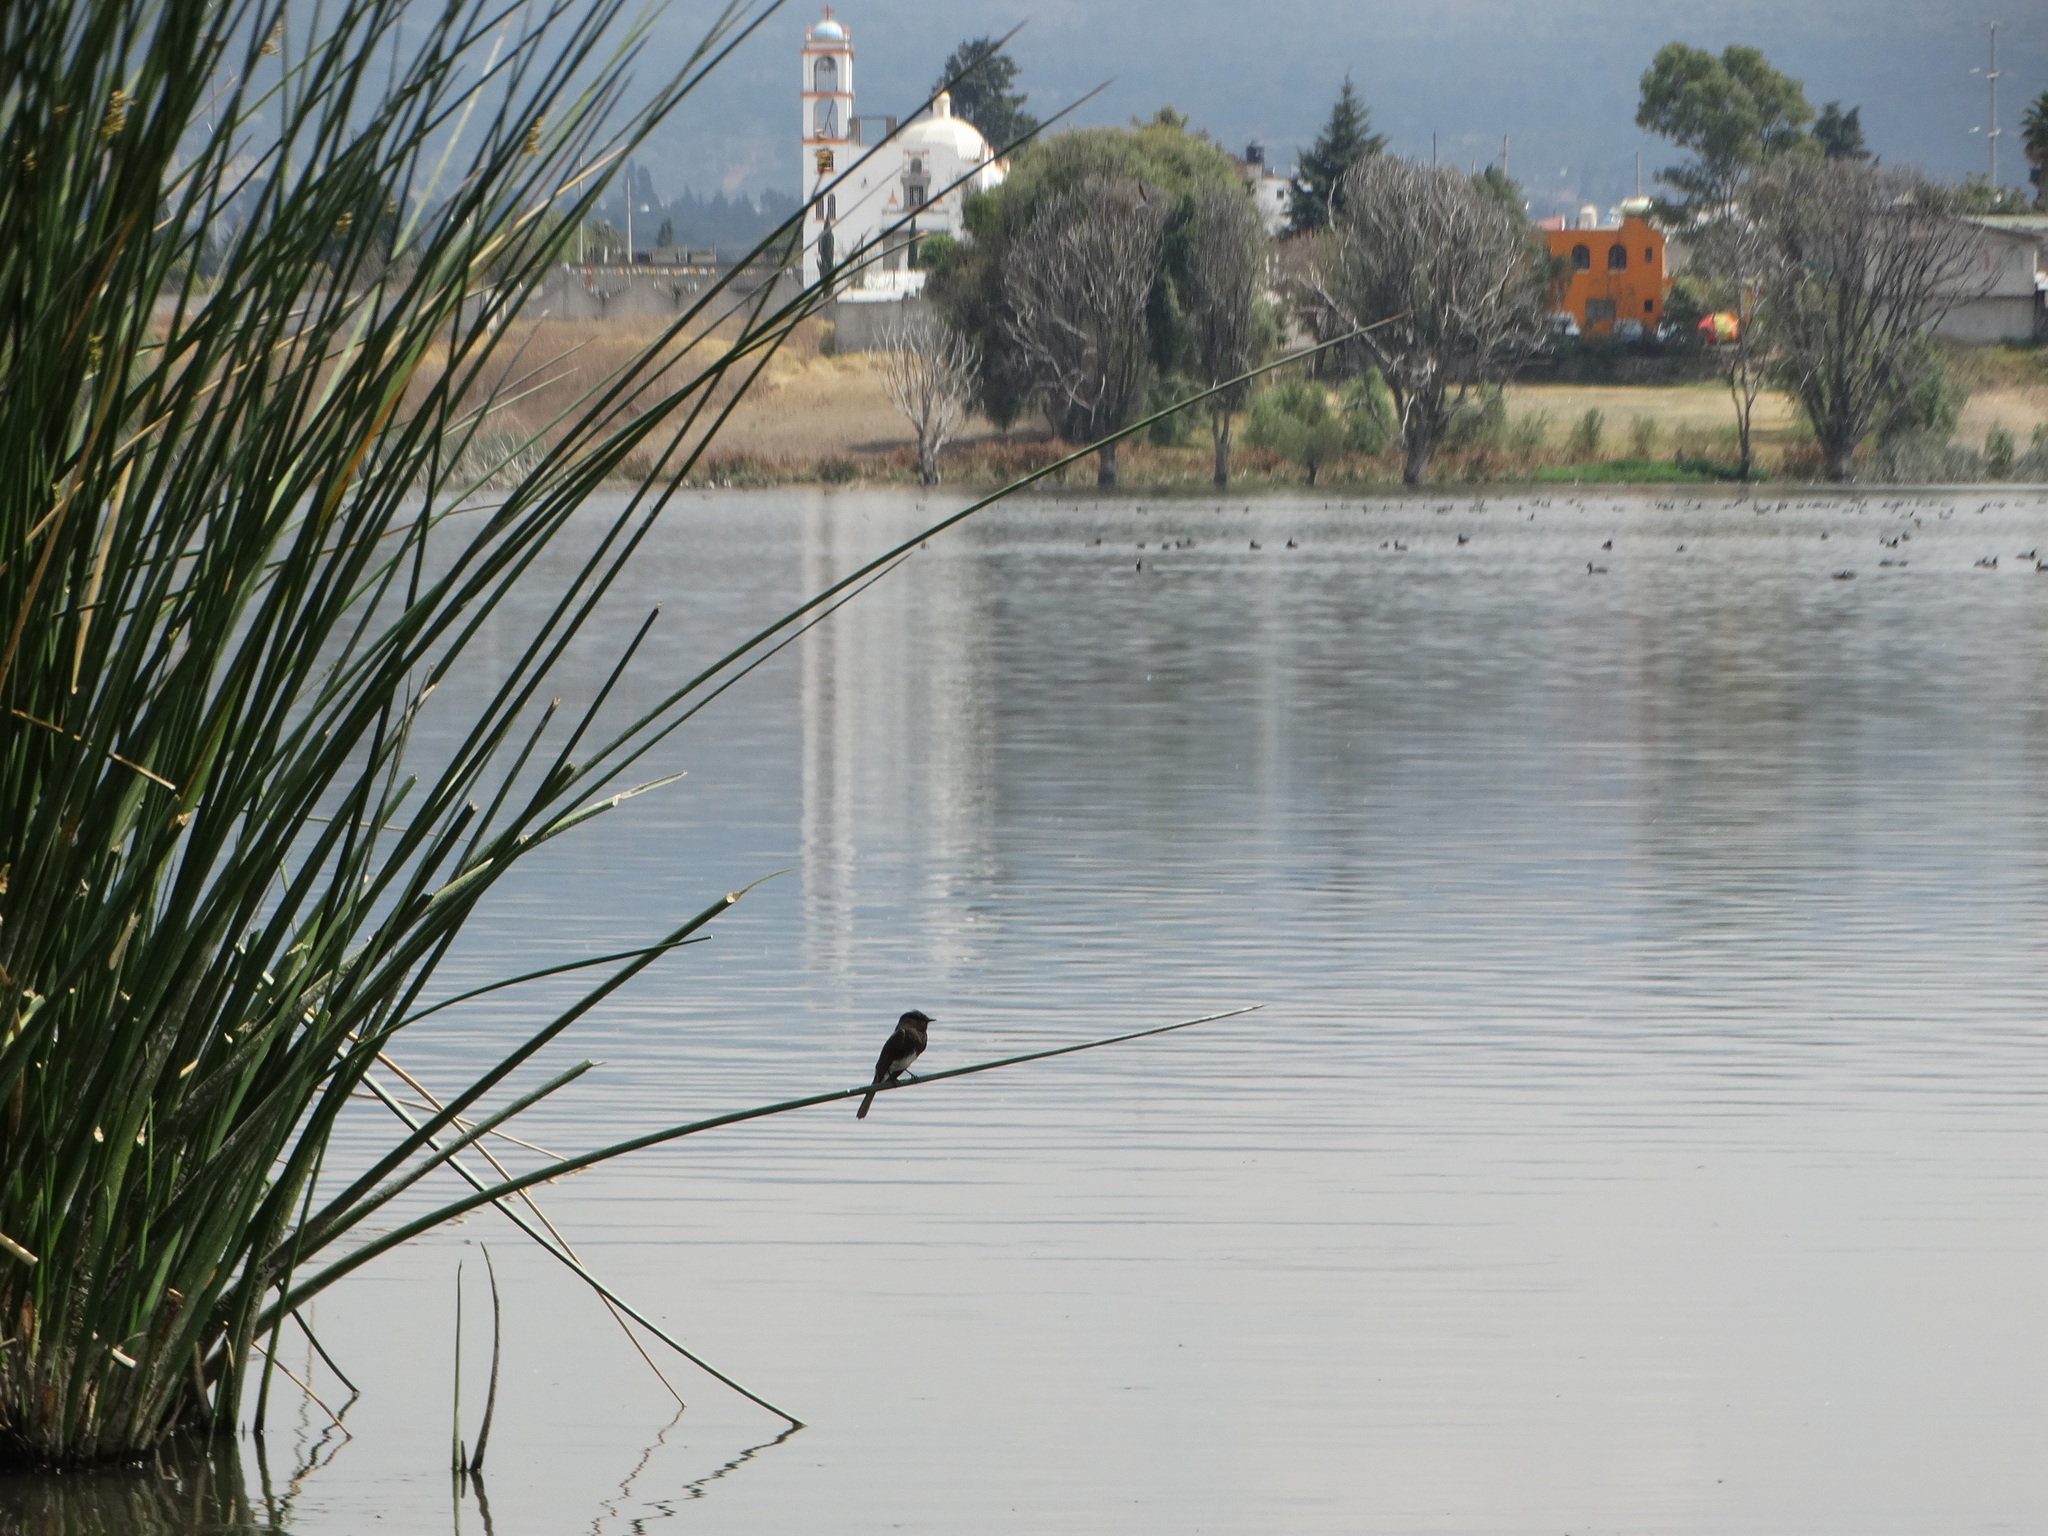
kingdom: Animalia
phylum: Chordata
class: Aves
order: Passeriformes
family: Tyrannidae
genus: Sayornis
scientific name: Sayornis nigricans
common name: Black phoebe
